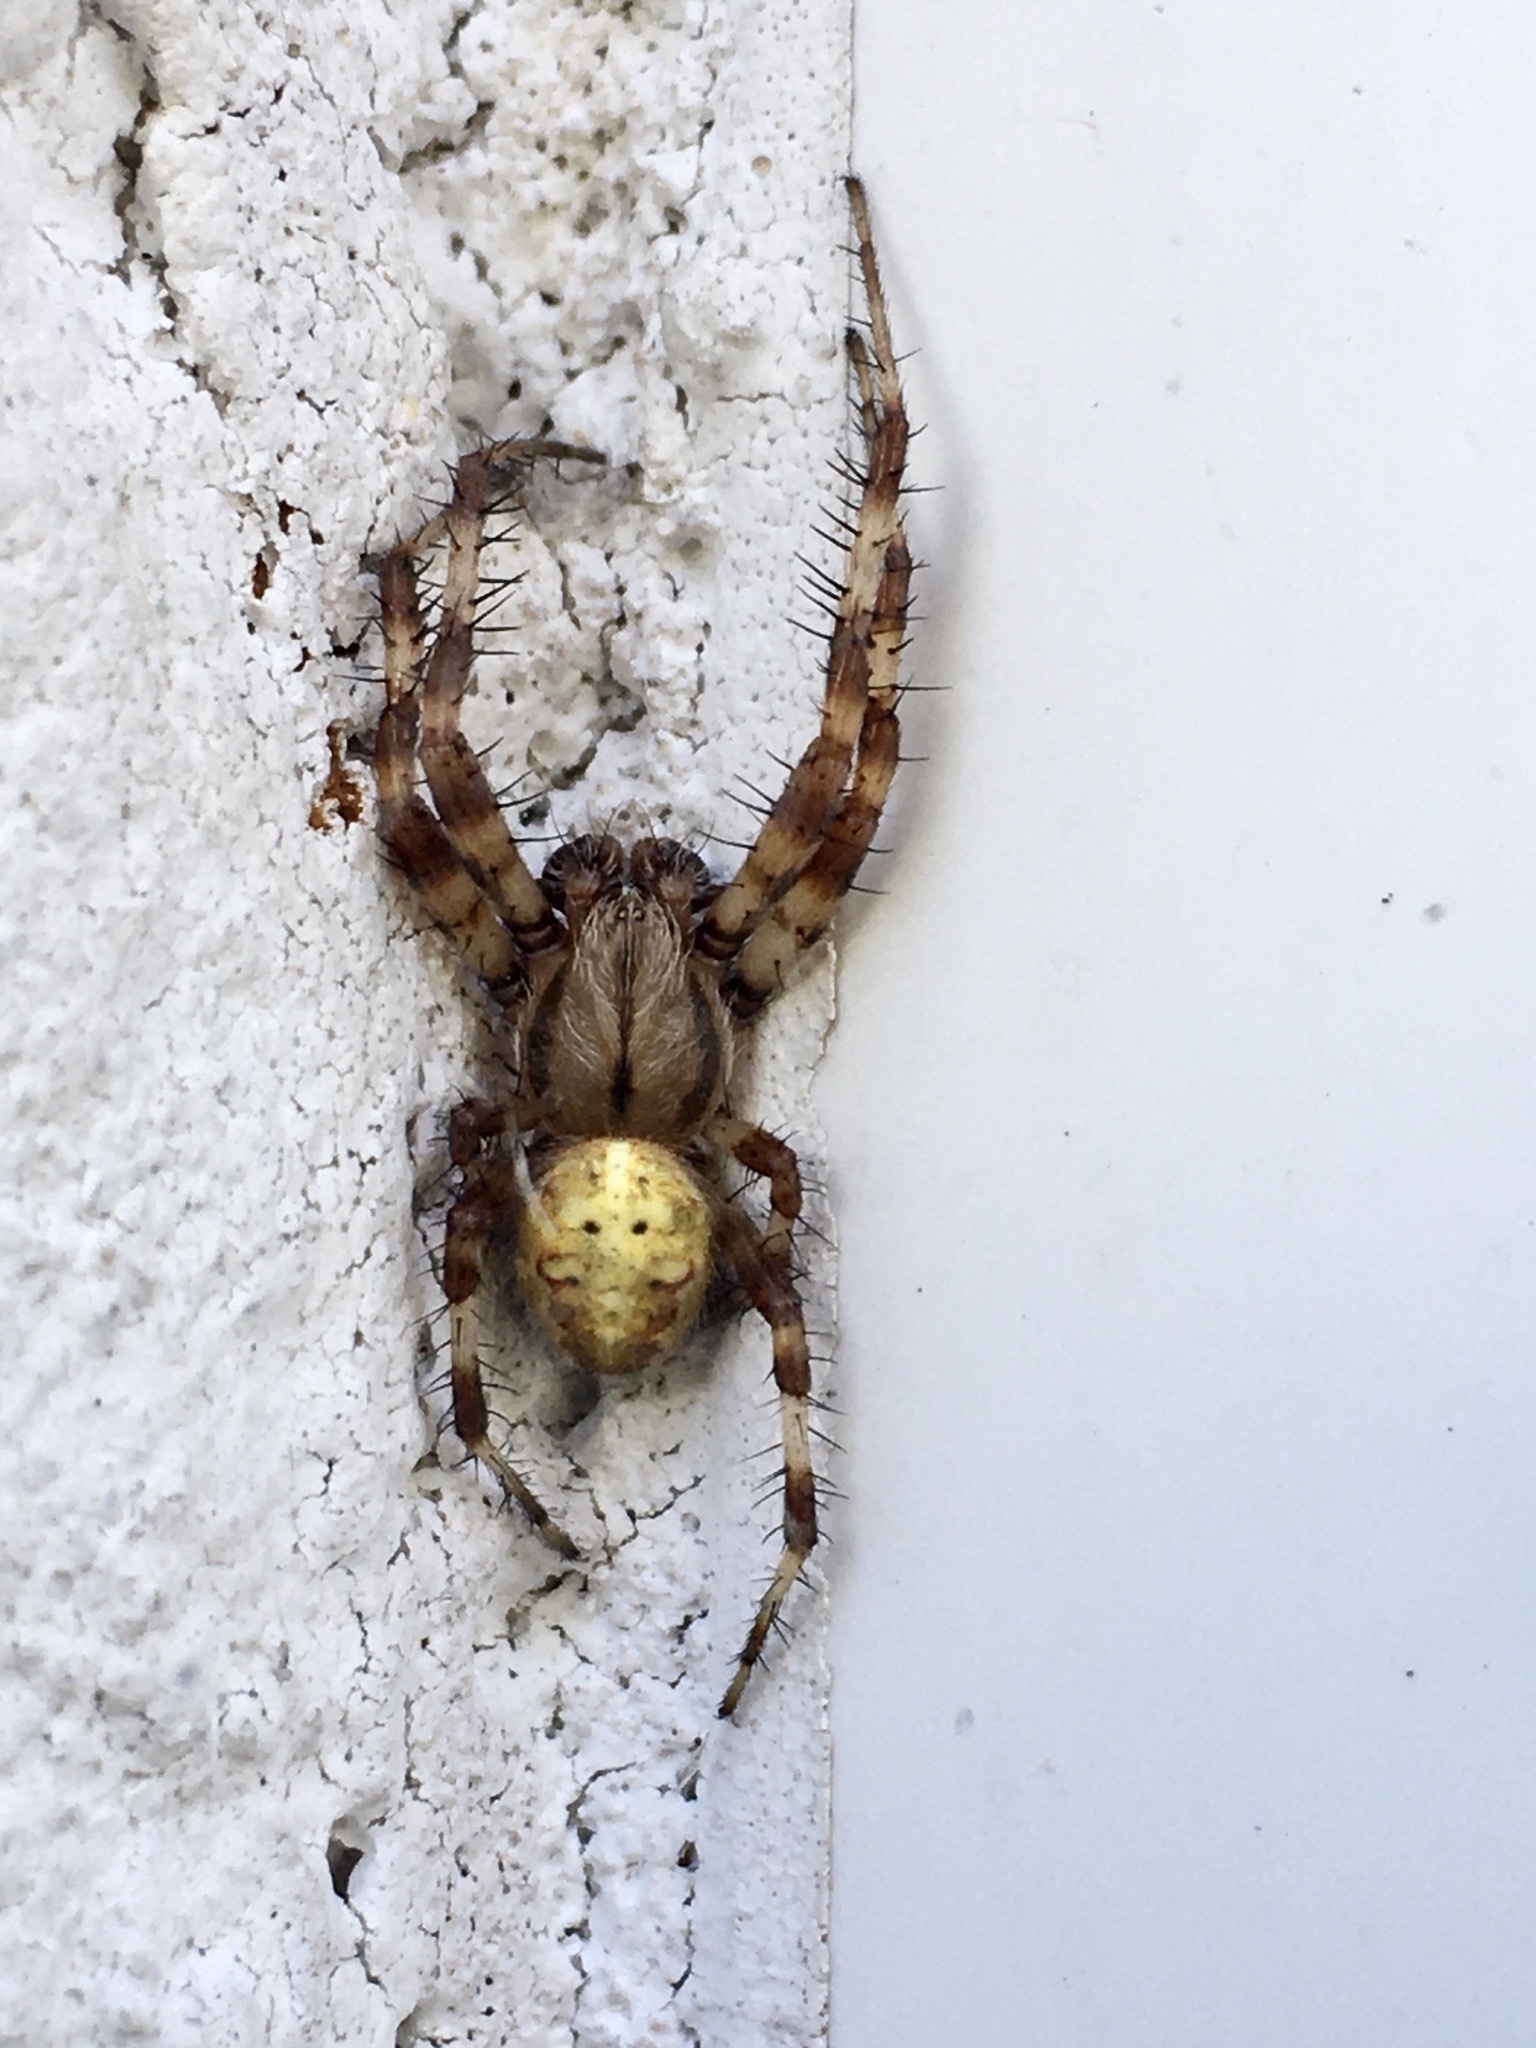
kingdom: Animalia
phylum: Arthropoda
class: Arachnida
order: Araneae
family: Araneidae
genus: Araneus
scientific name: Araneus quadratus
